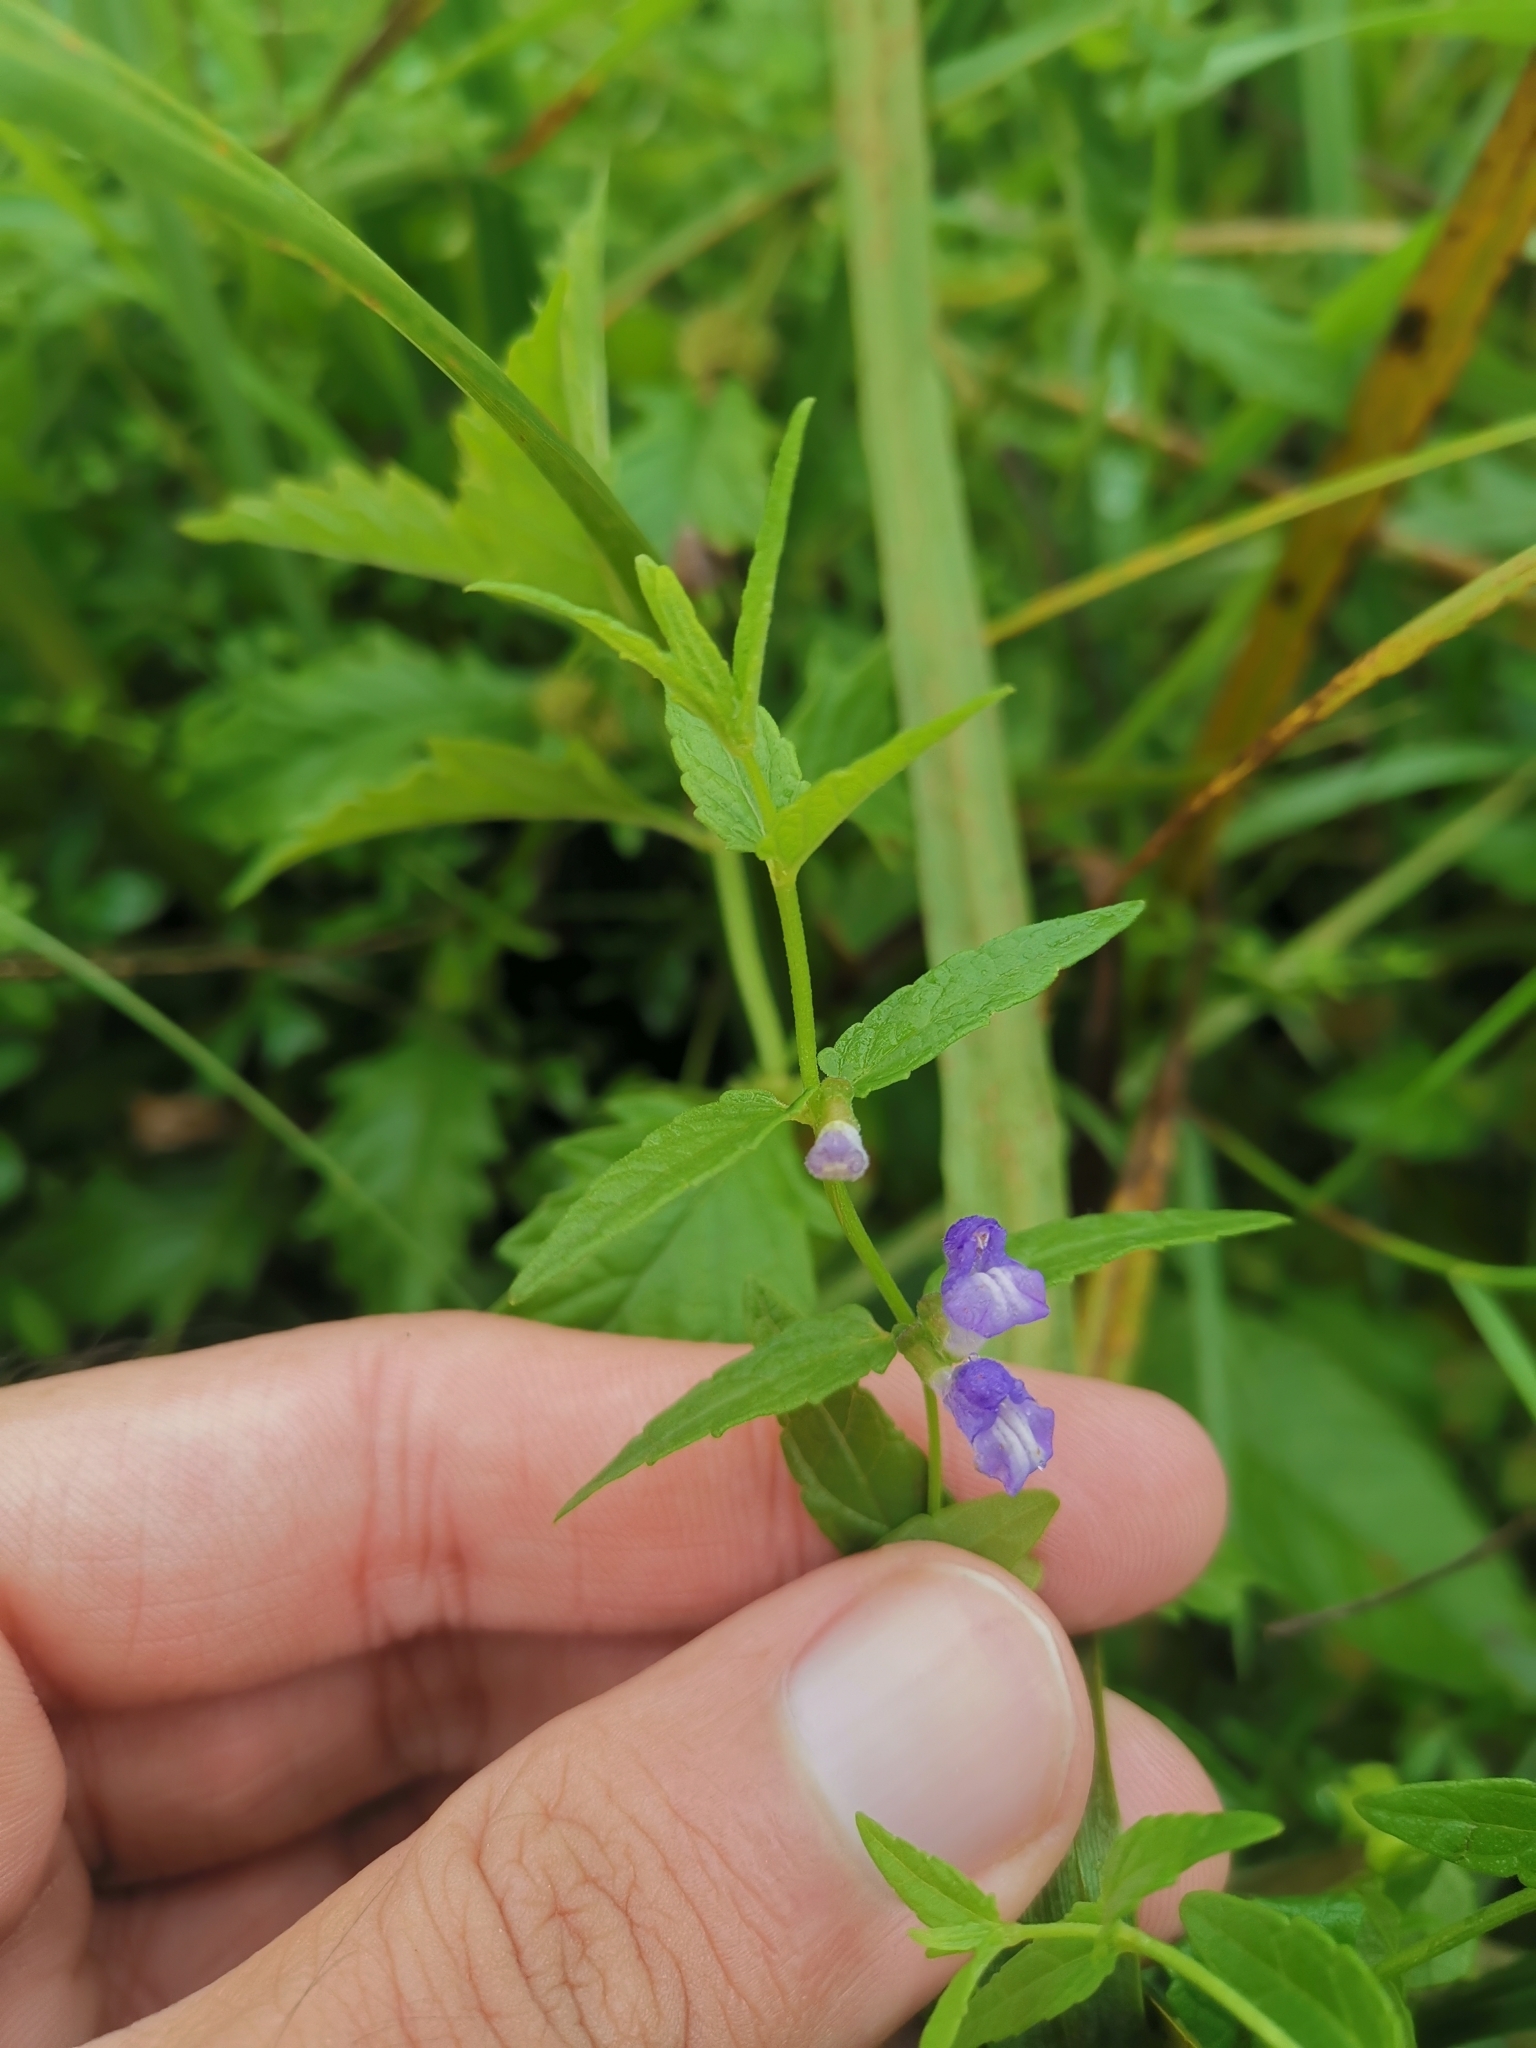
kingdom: Plantae
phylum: Tracheophyta
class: Magnoliopsida
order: Lamiales
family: Lamiaceae
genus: Scutellaria
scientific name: Scutellaria galericulata
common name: Skullcap
